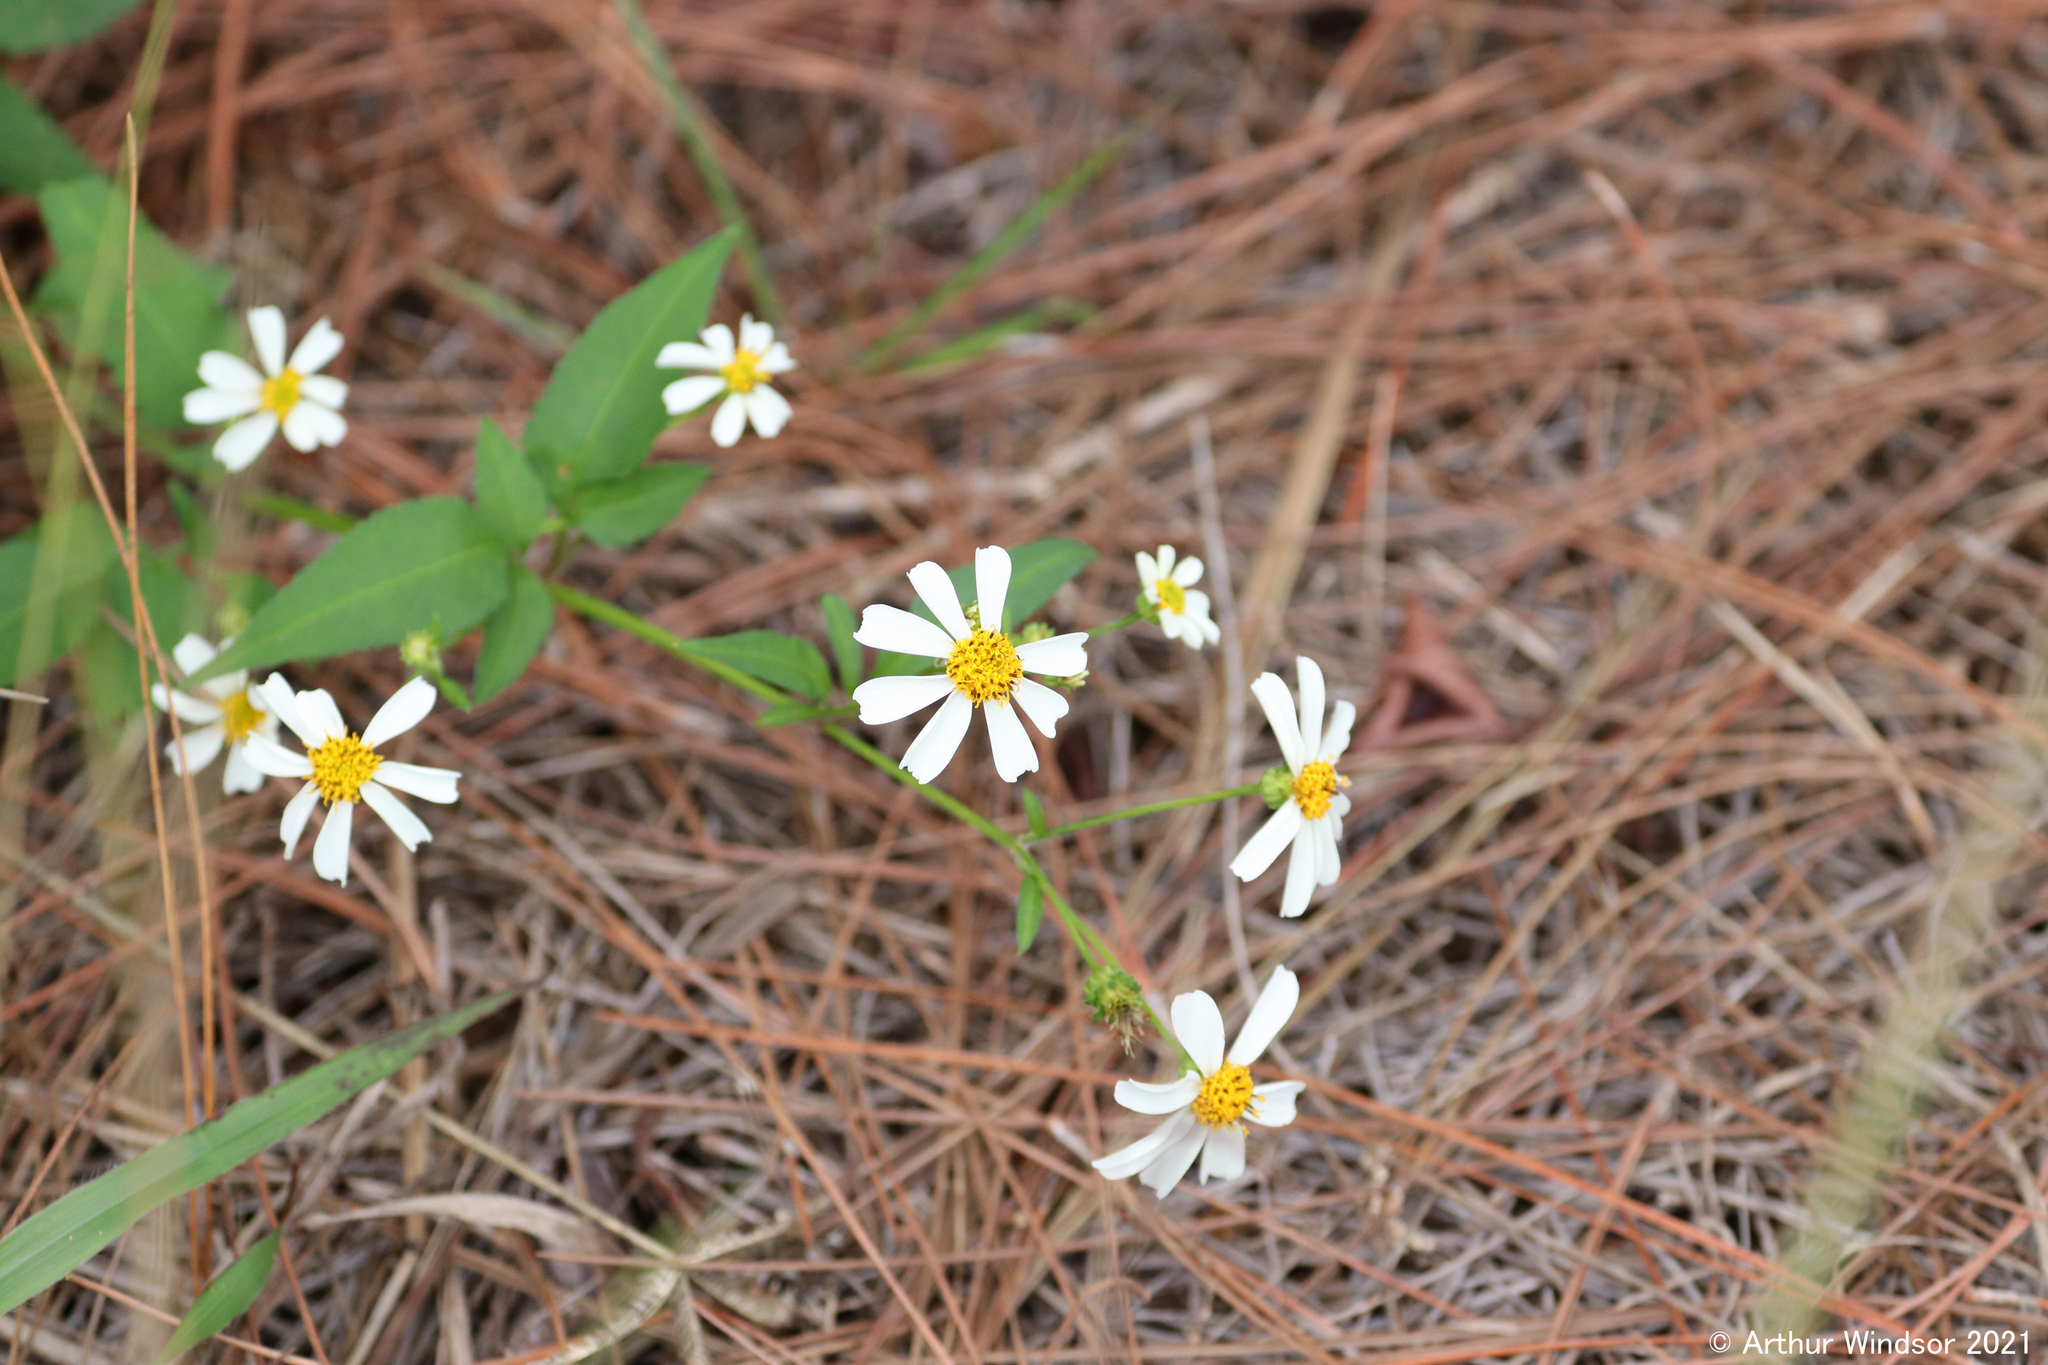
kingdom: Plantae
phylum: Tracheophyta
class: Magnoliopsida
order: Asterales
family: Asteraceae
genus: Bidens
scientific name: Bidens alba
